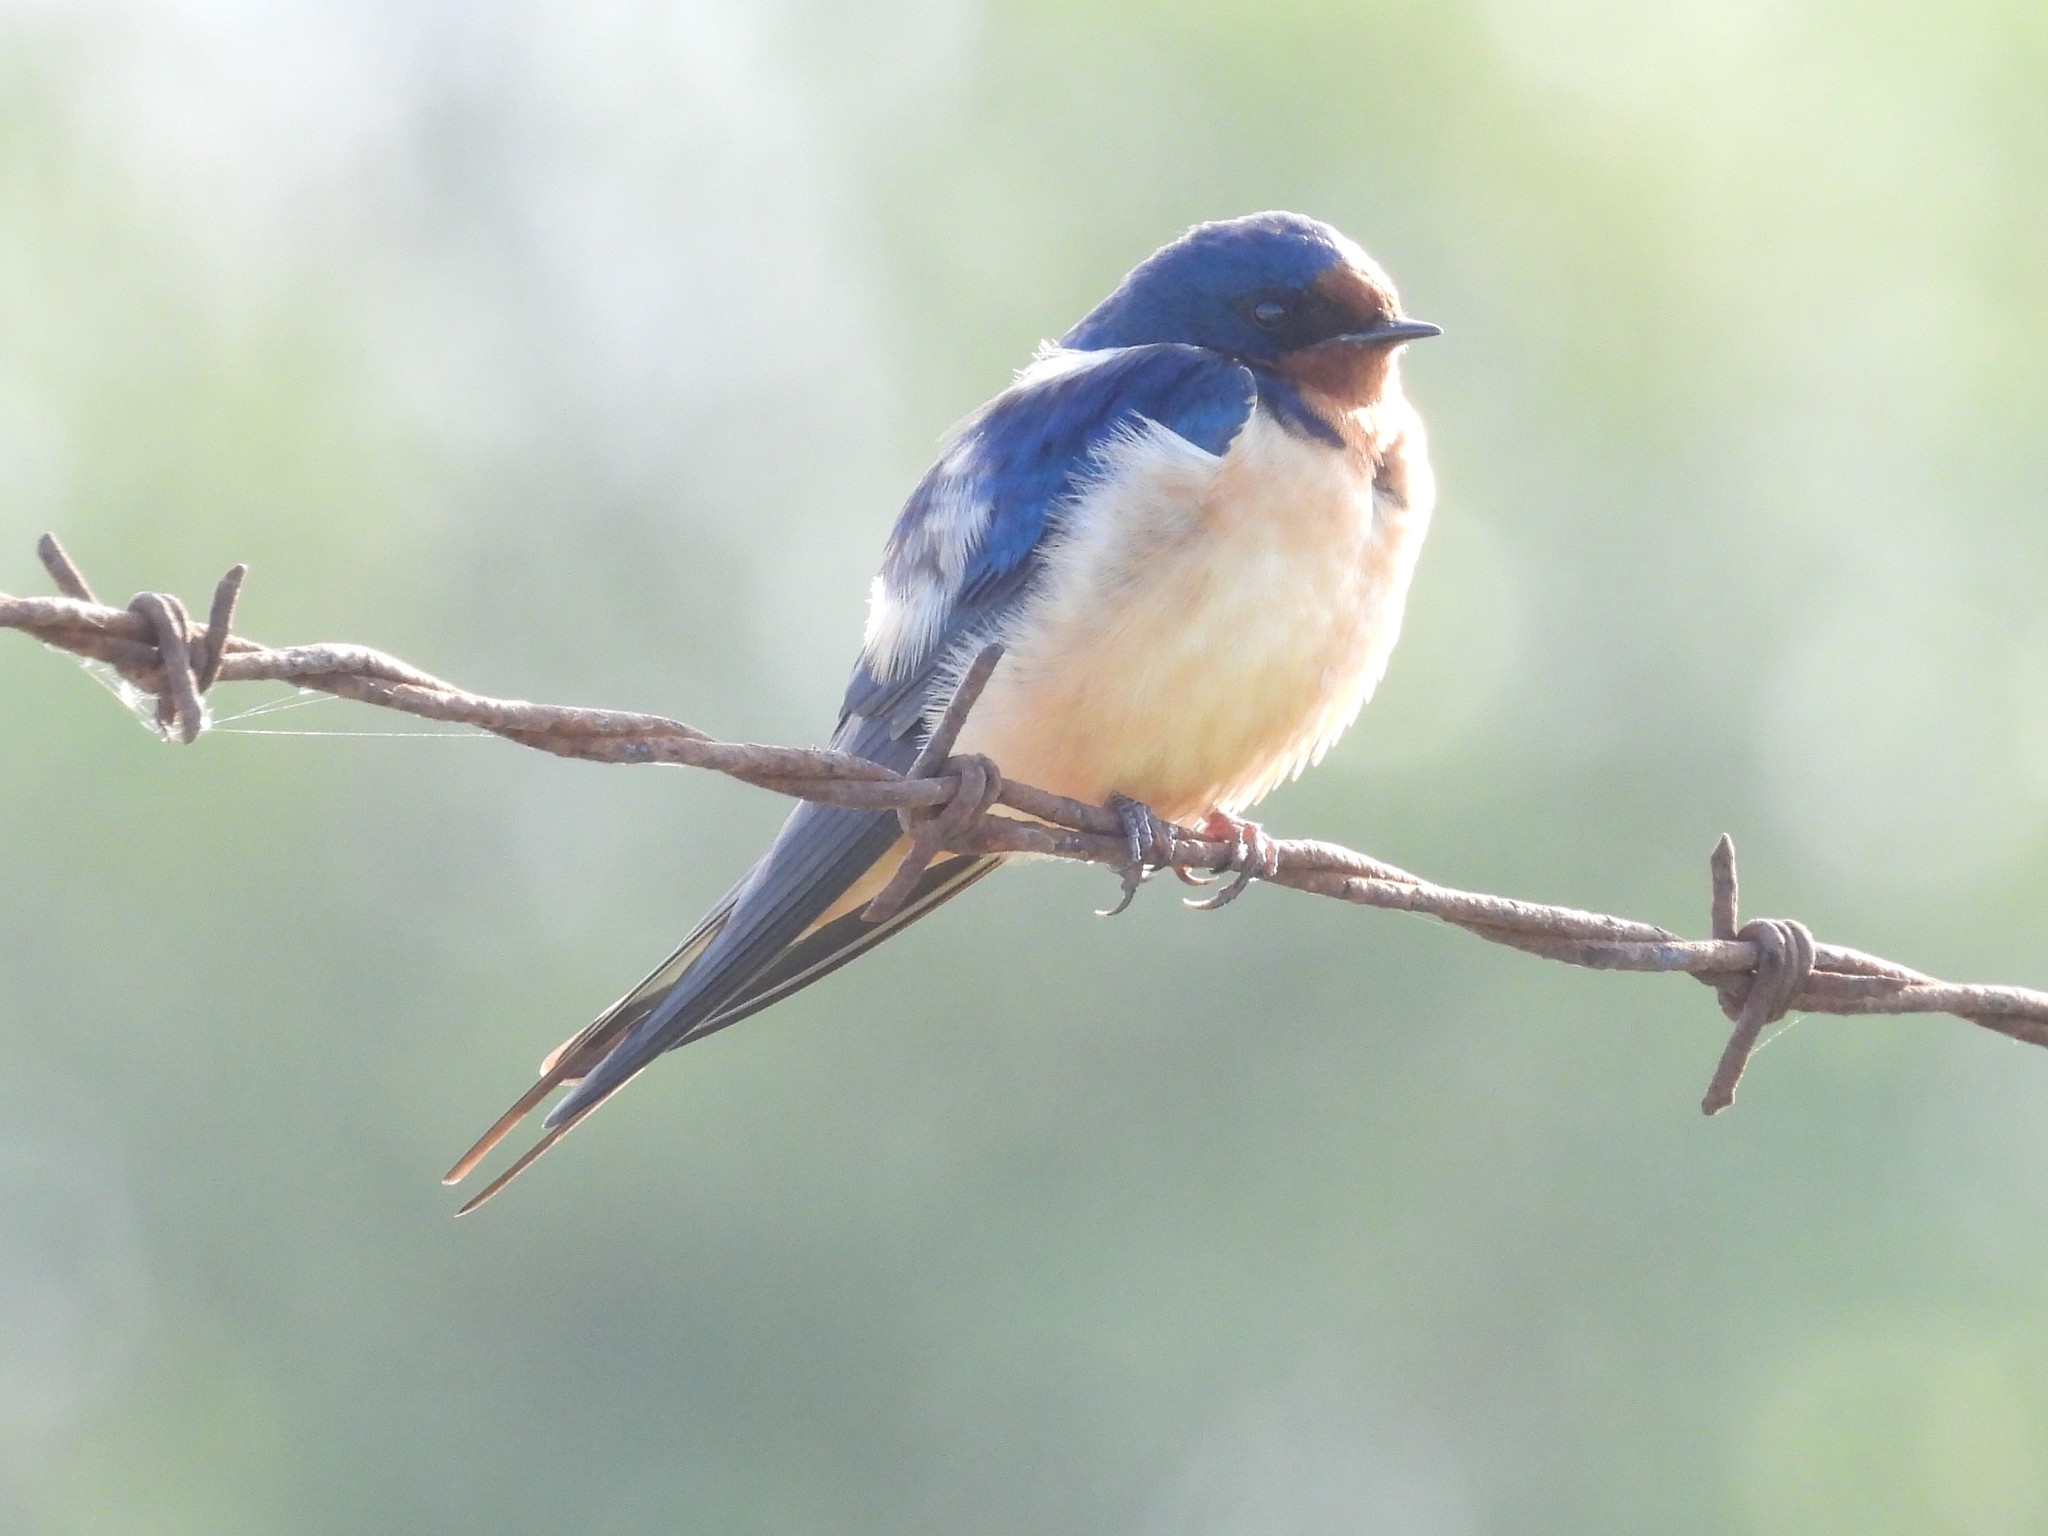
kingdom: Animalia
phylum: Chordata
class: Aves
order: Passeriformes
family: Hirundinidae
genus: Hirundo
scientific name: Hirundo rustica
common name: Barn swallow
